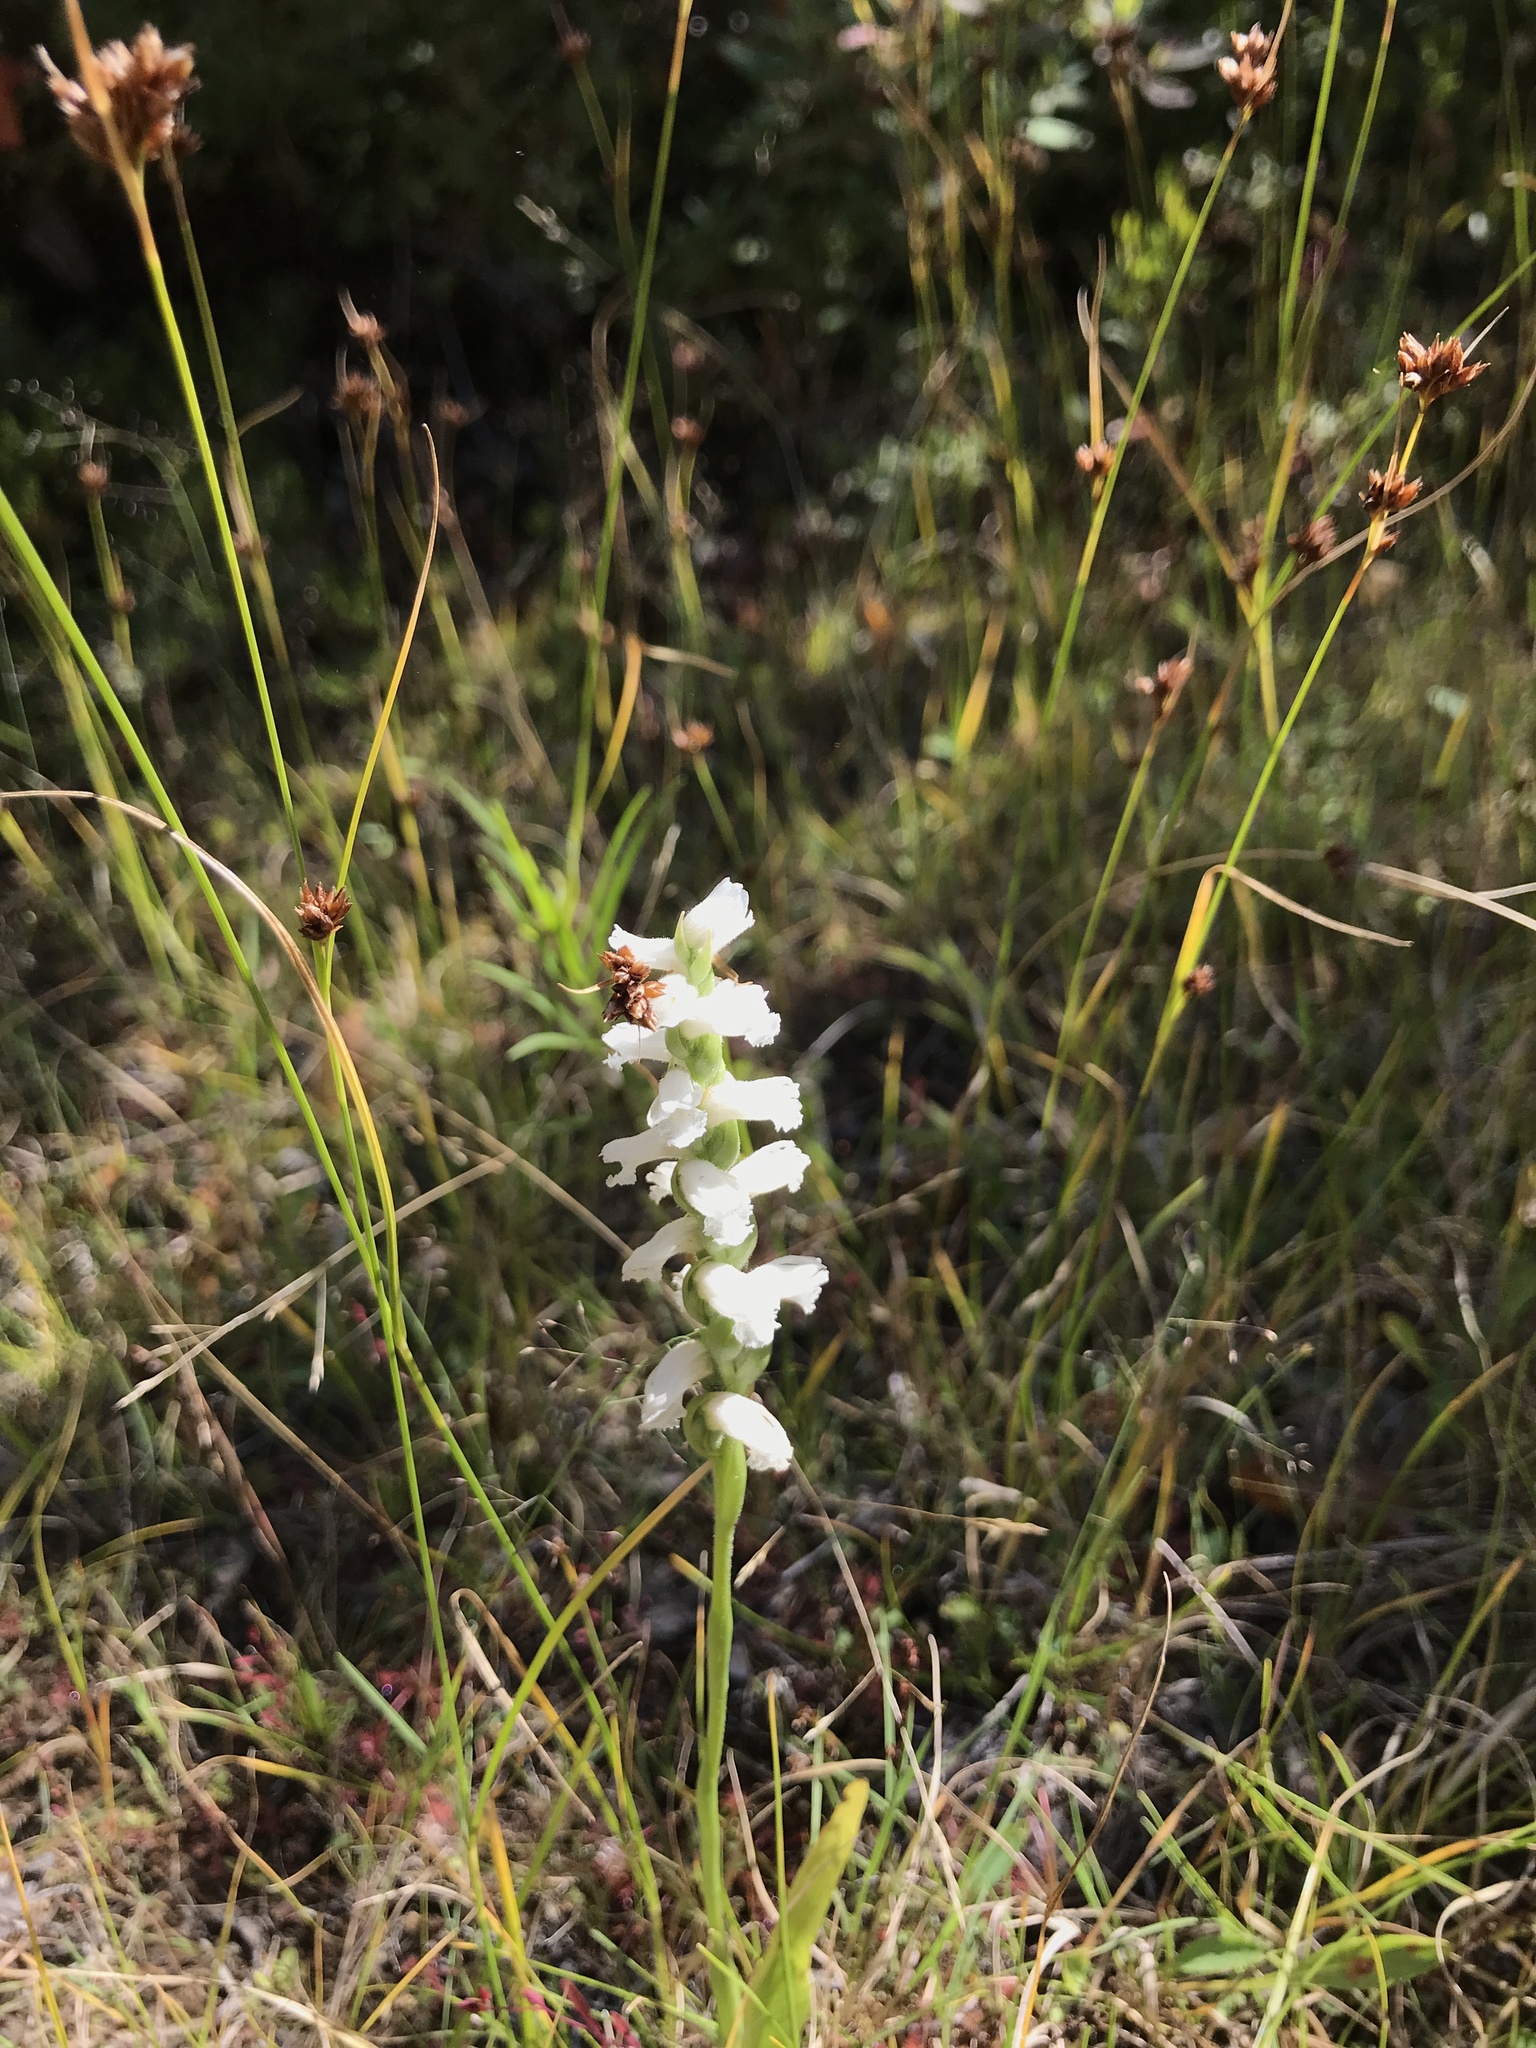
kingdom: Plantae
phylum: Tracheophyta
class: Liliopsida
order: Asparagales
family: Orchidaceae
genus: Spiranthes
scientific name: Spiranthes cernua
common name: Dropping ladies'-tresses
